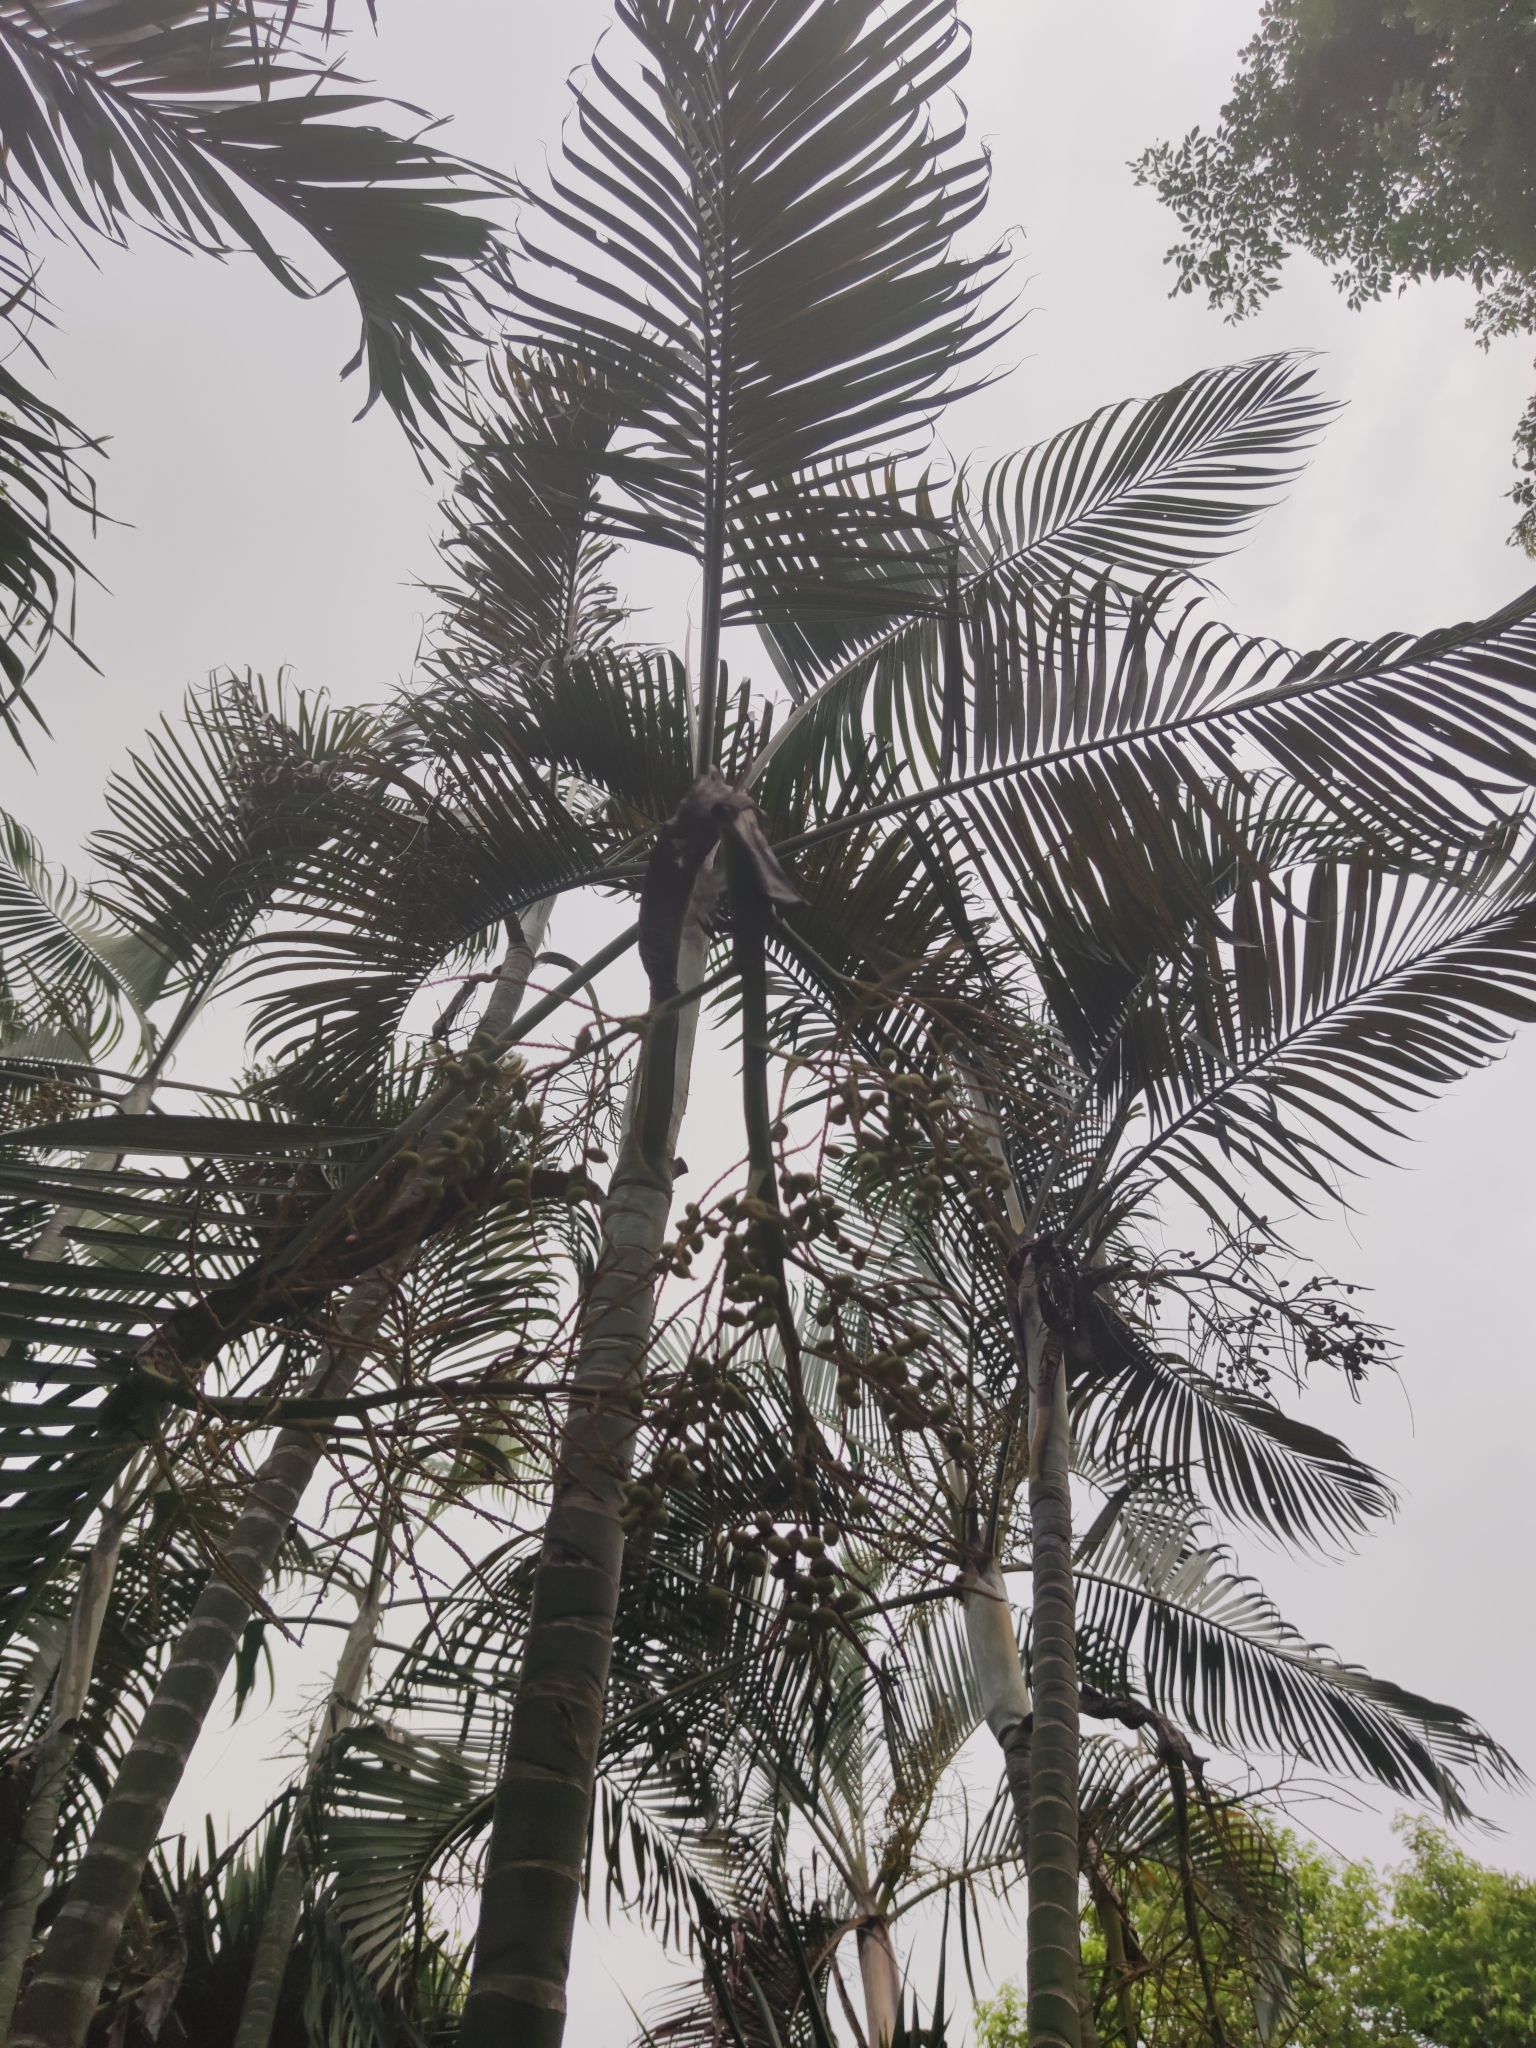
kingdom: Plantae
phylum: Tracheophyta
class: Liliopsida
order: Arecales
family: Arecaceae
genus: Dypsis
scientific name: Dypsis lutescens
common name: Yellow butterfly palm
